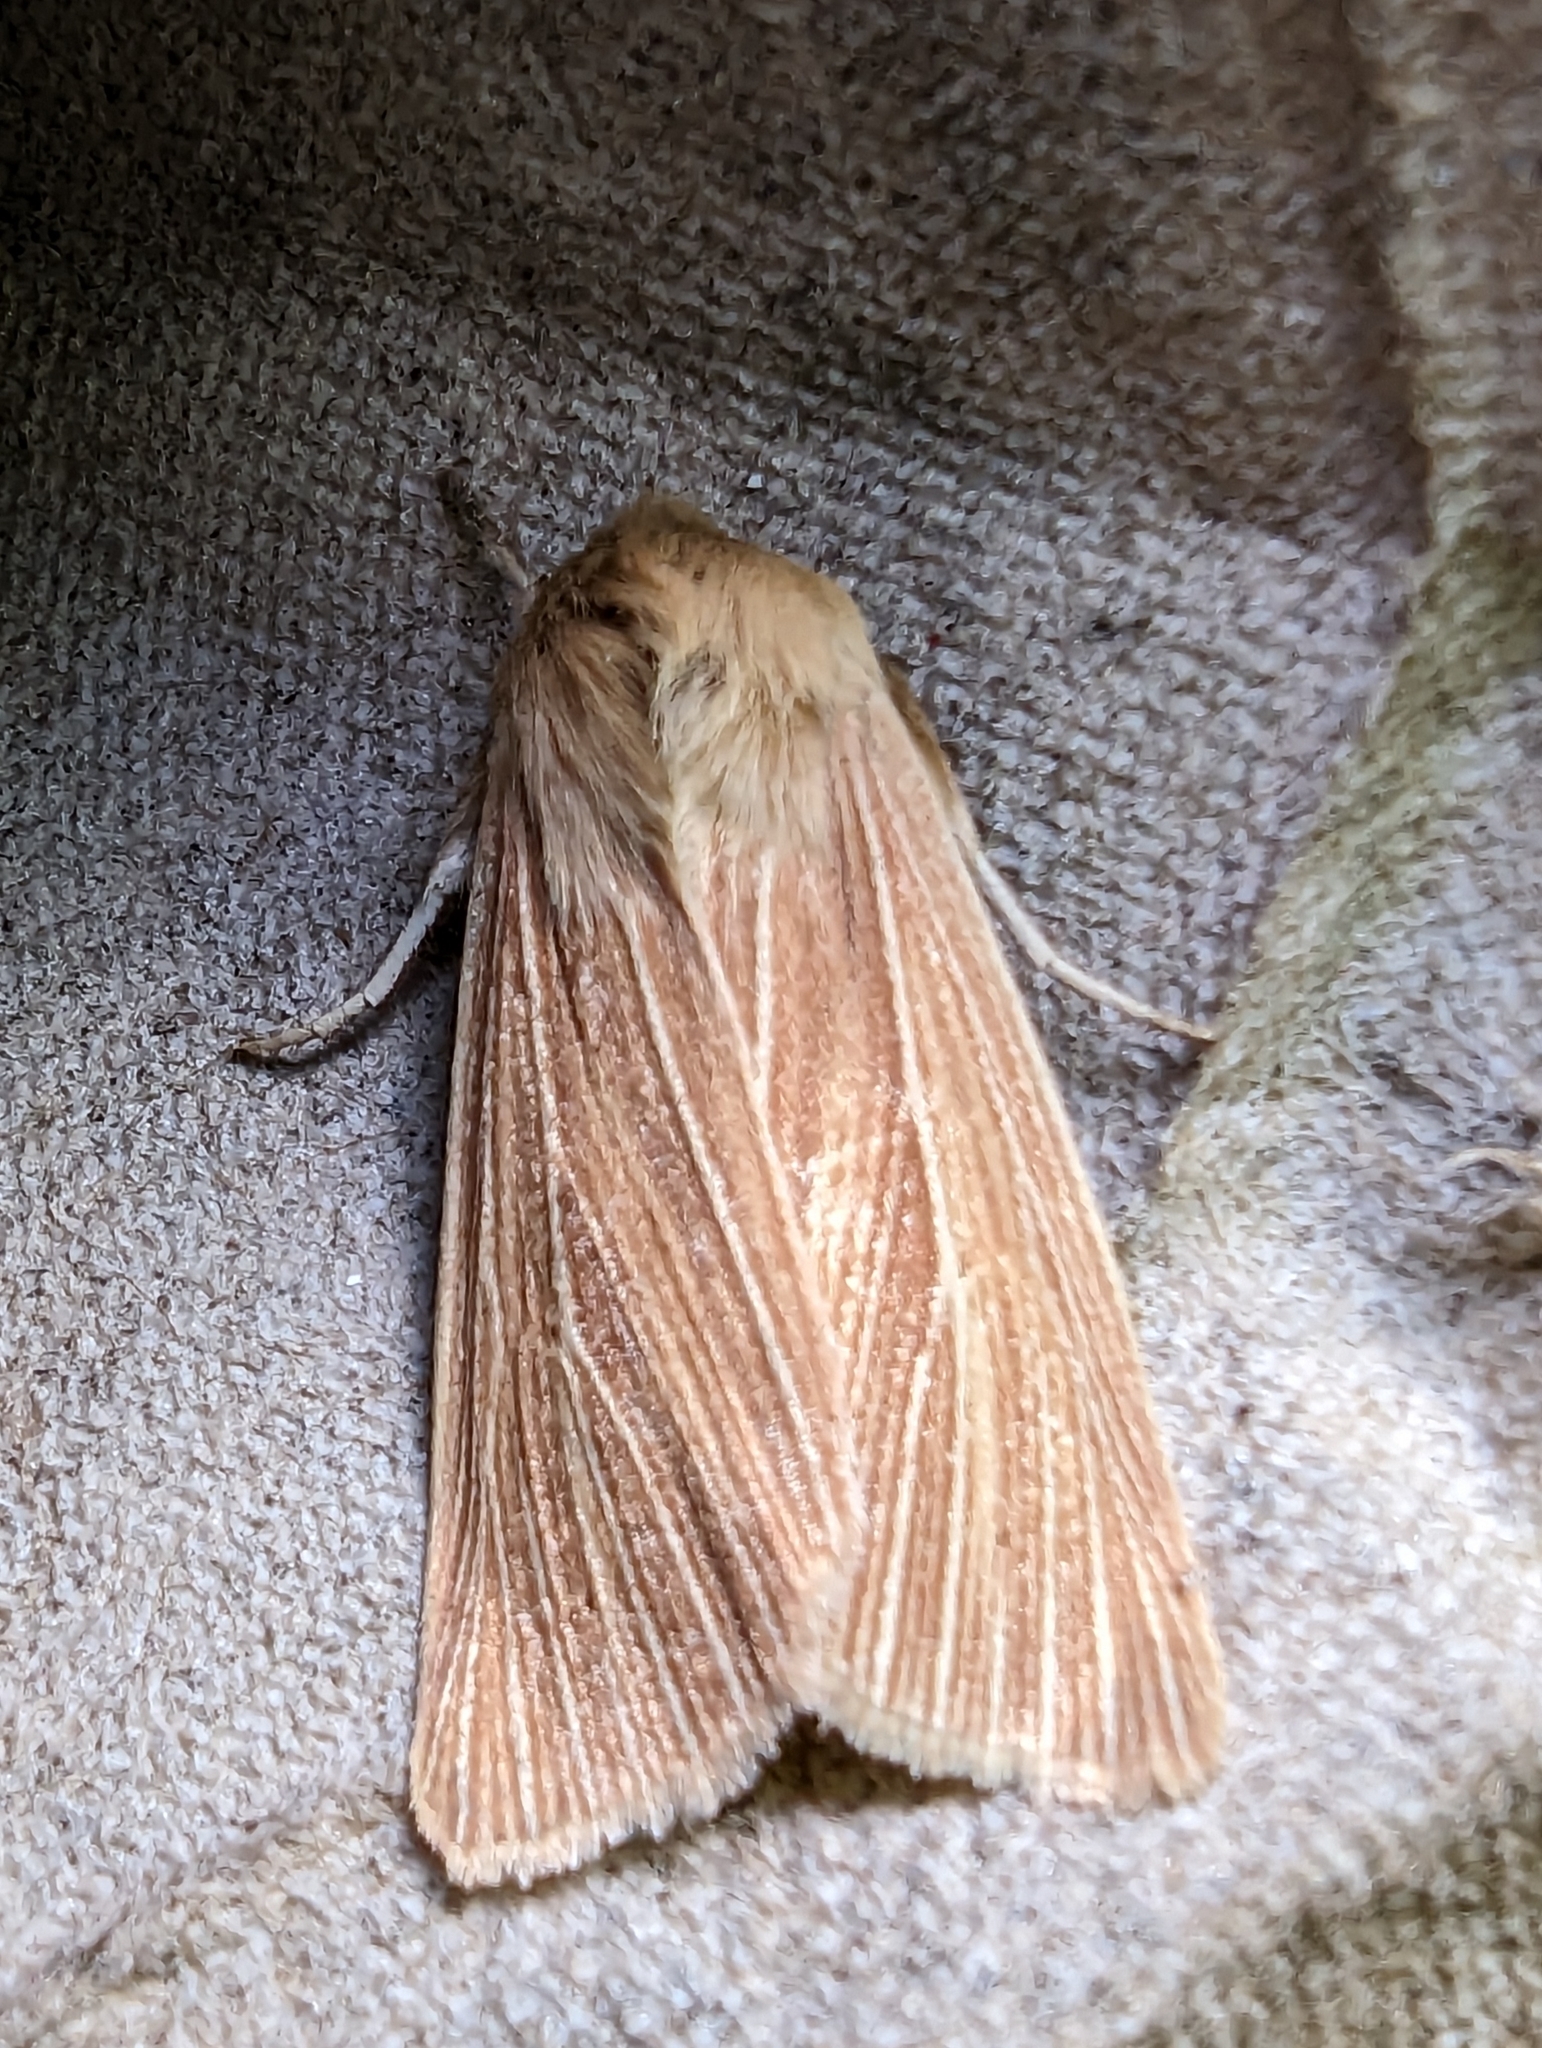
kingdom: Animalia
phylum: Arthropoda
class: Insecta
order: Lepidoptera
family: Noctuidae
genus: Mythimna
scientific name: Mythimna pallens
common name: Common wainscot
